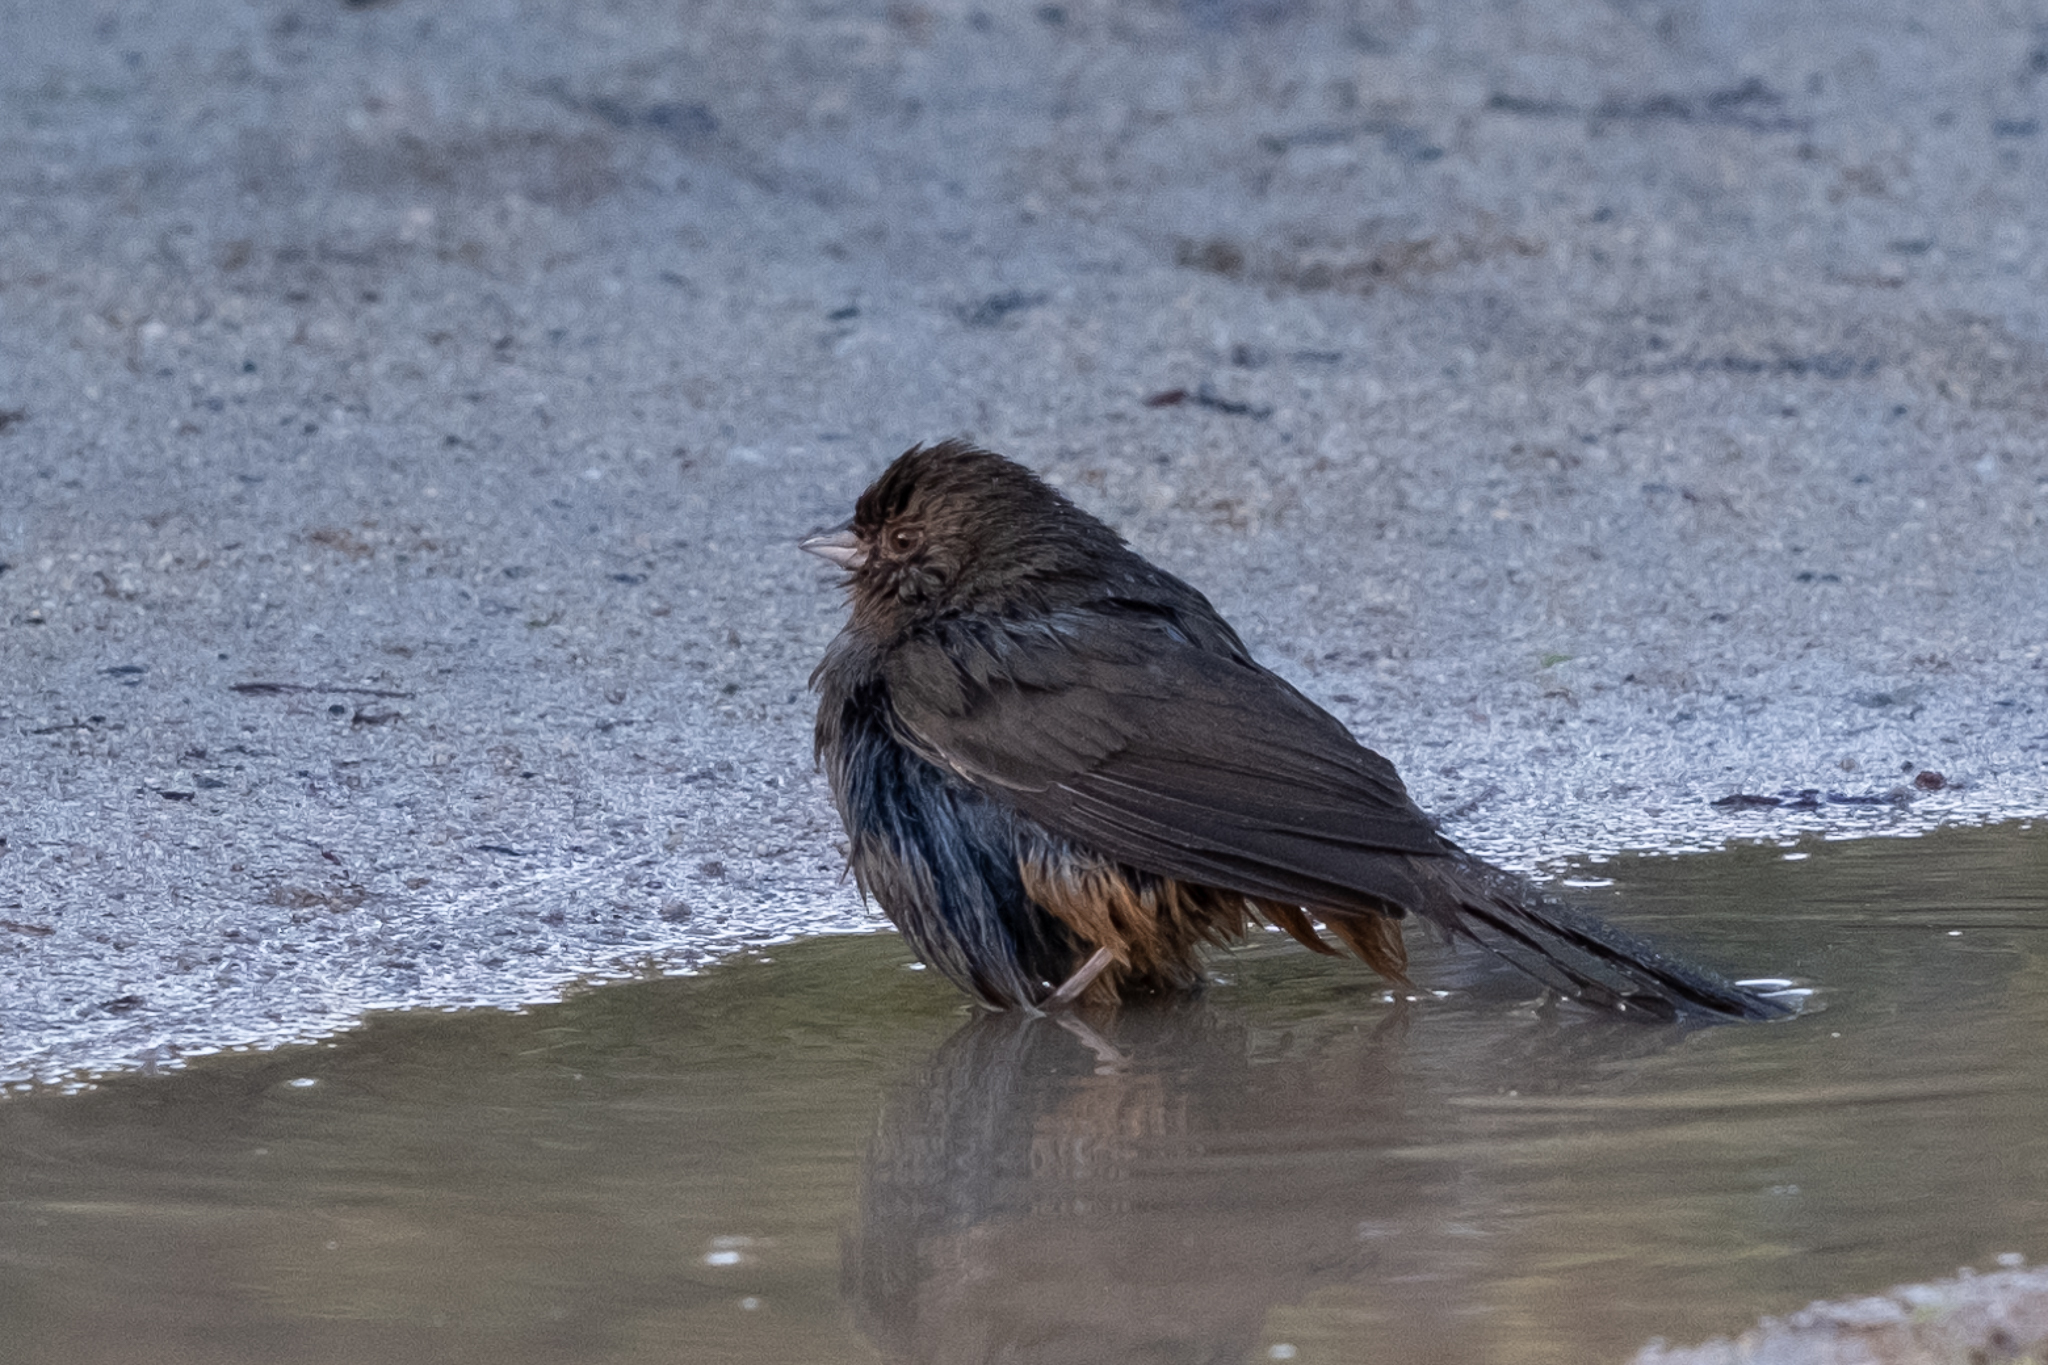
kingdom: Animalia
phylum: Chordata
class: Aves
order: Passeriformes
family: Passerellidae
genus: Melozone
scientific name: Melozone crissalis
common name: California towhee
